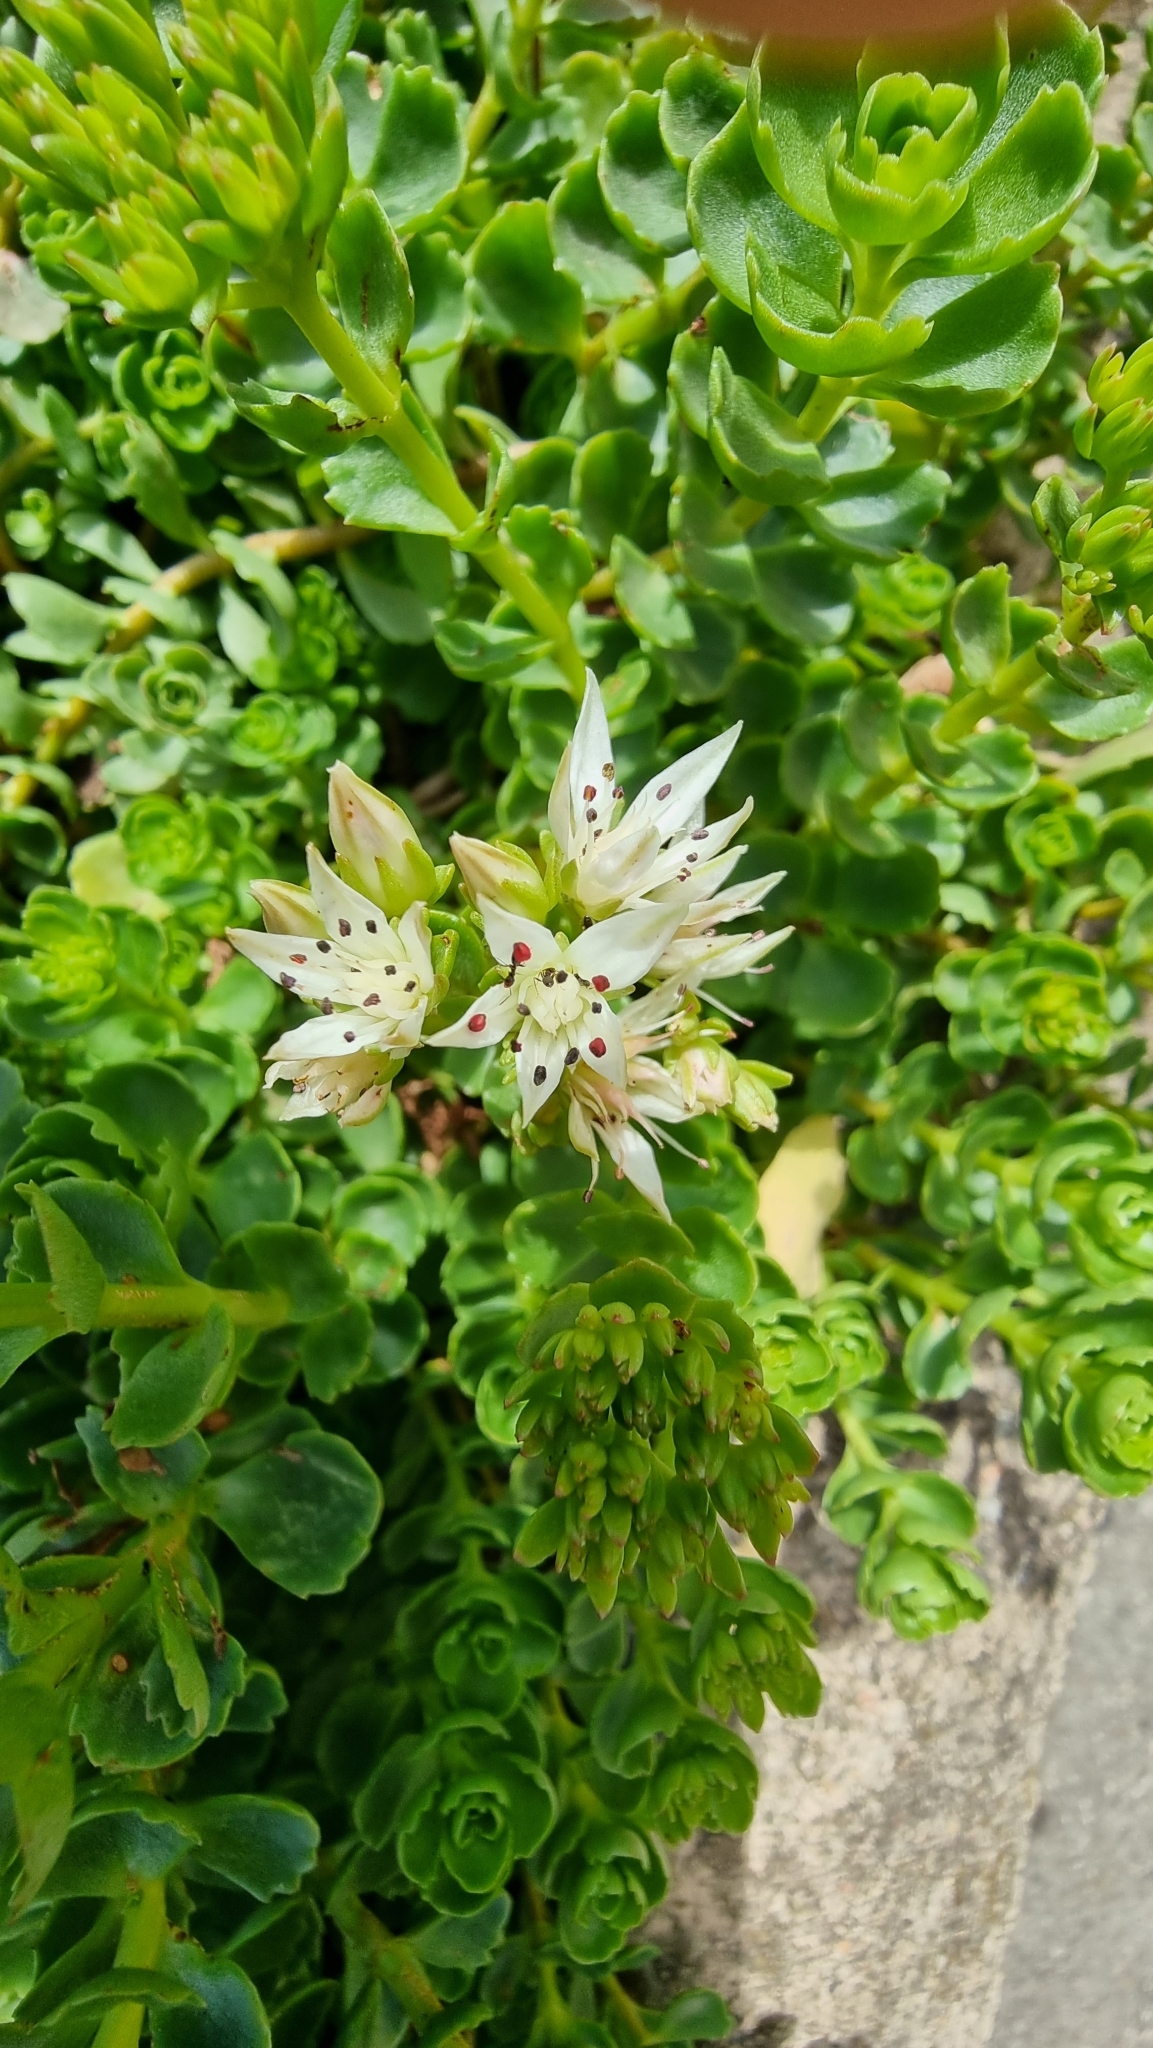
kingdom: Plantae
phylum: Tracheophyta
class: Magnoliopsida
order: Saxifragales
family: Crassulaceae
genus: Phedimus
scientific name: Phedimus spurius
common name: Caucasian stonecrop
